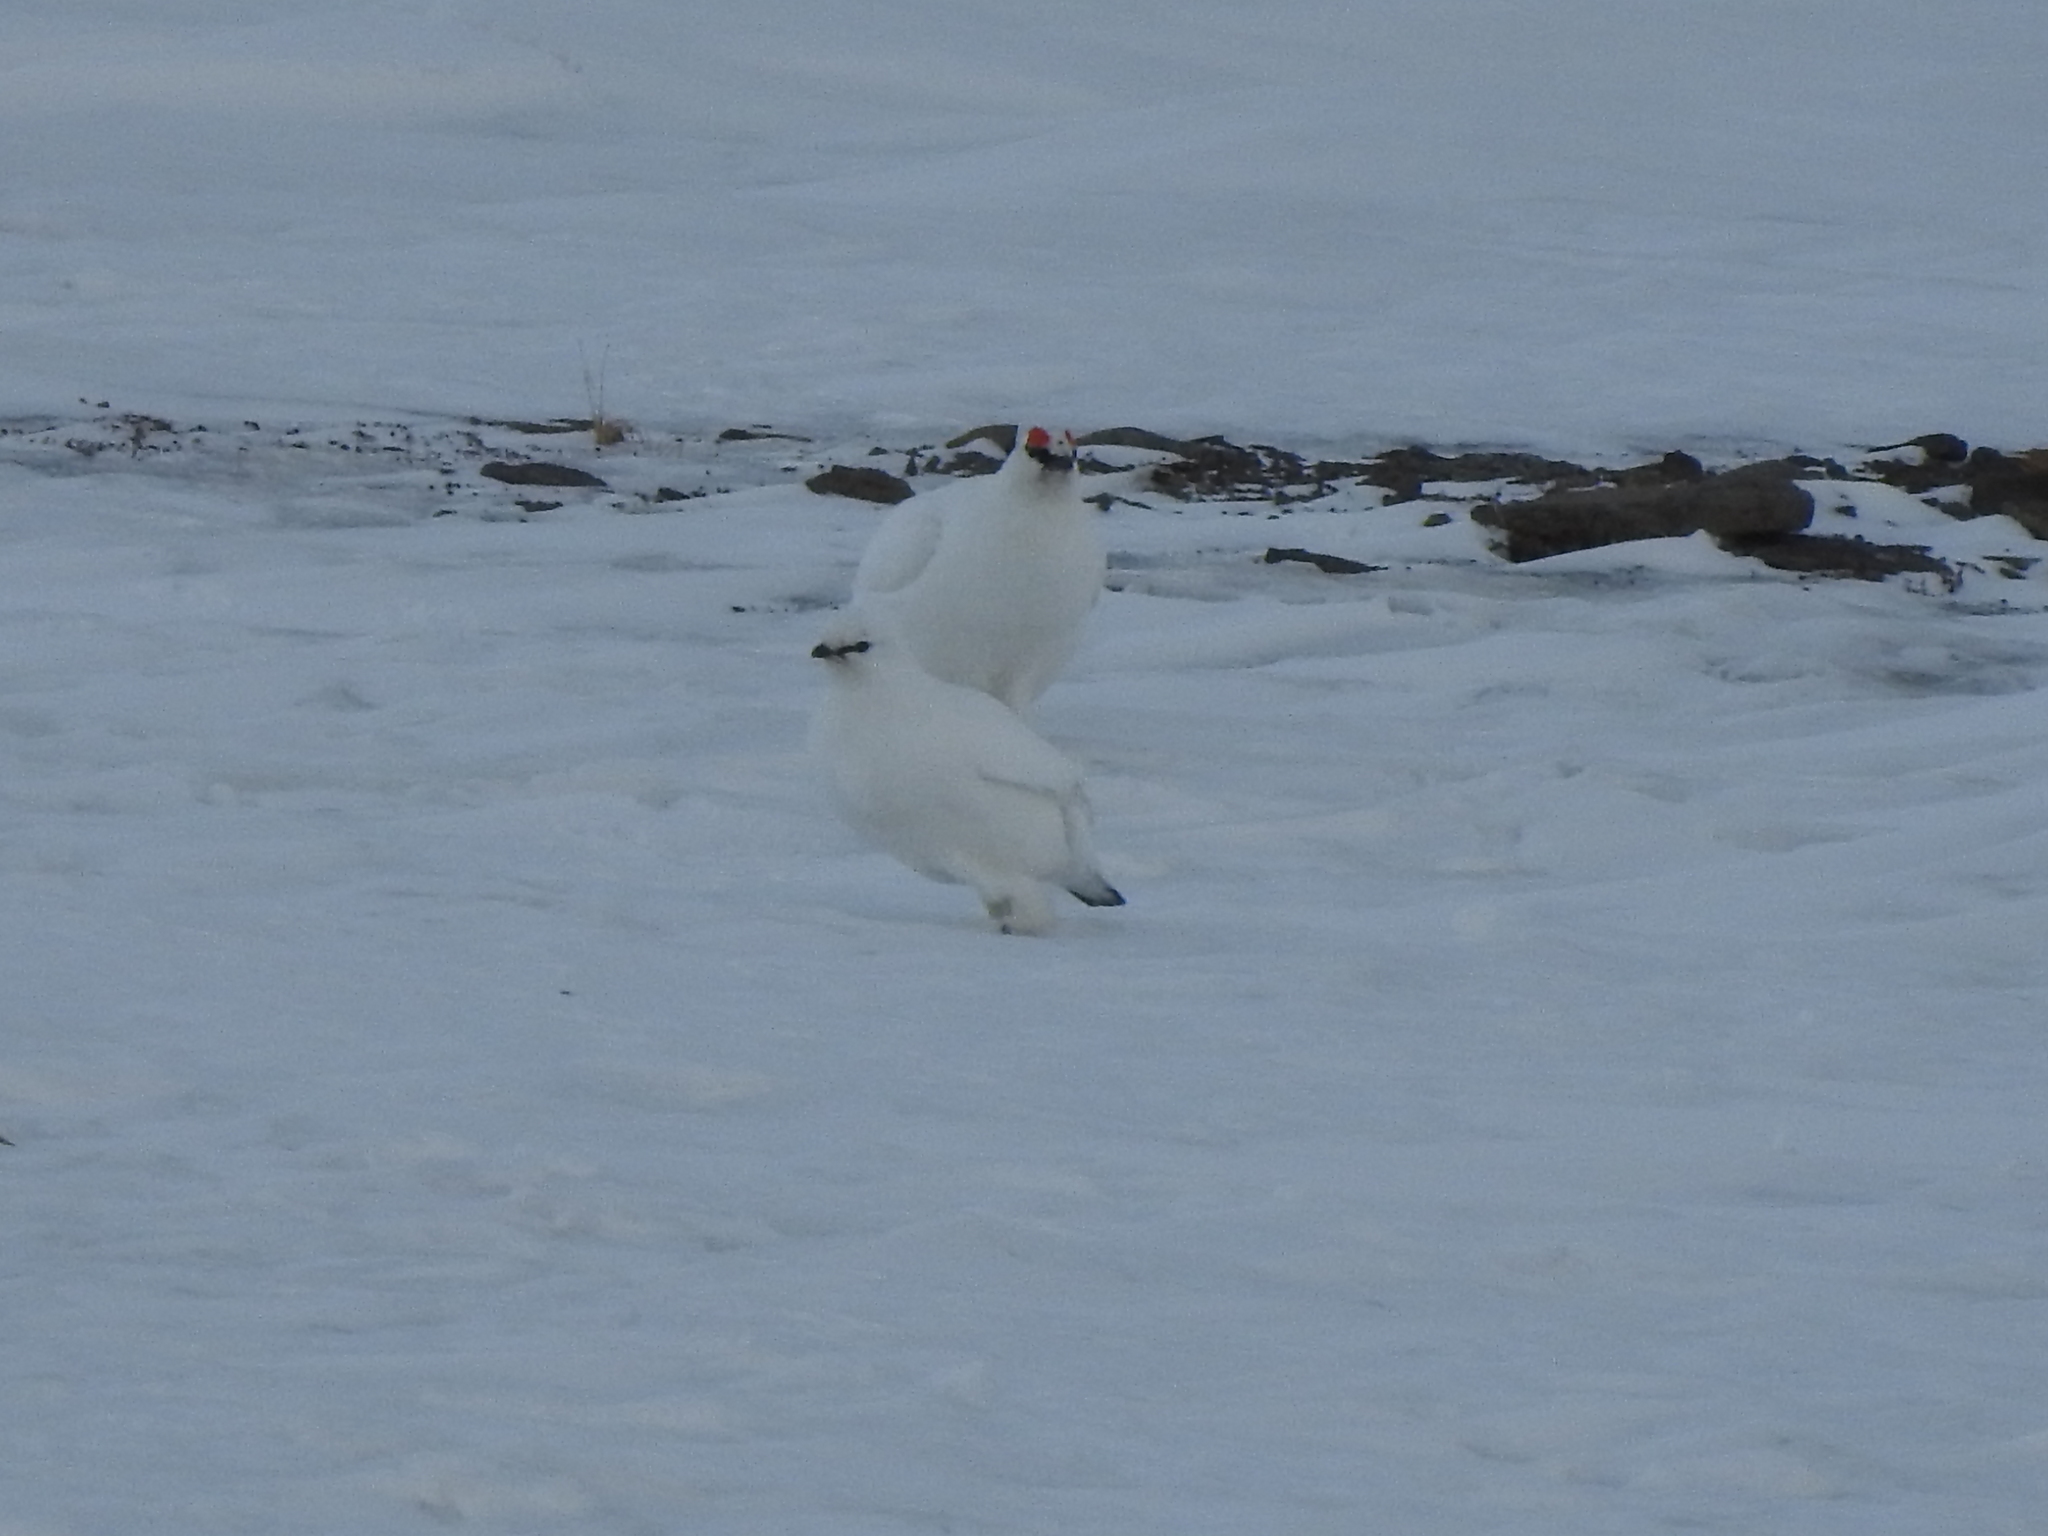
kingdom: Animalia
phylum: Chordata
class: Aves
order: Galliformes
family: Phasianidae
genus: Lagopus
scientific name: Lagopus muta
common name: Rock ptarmigan
